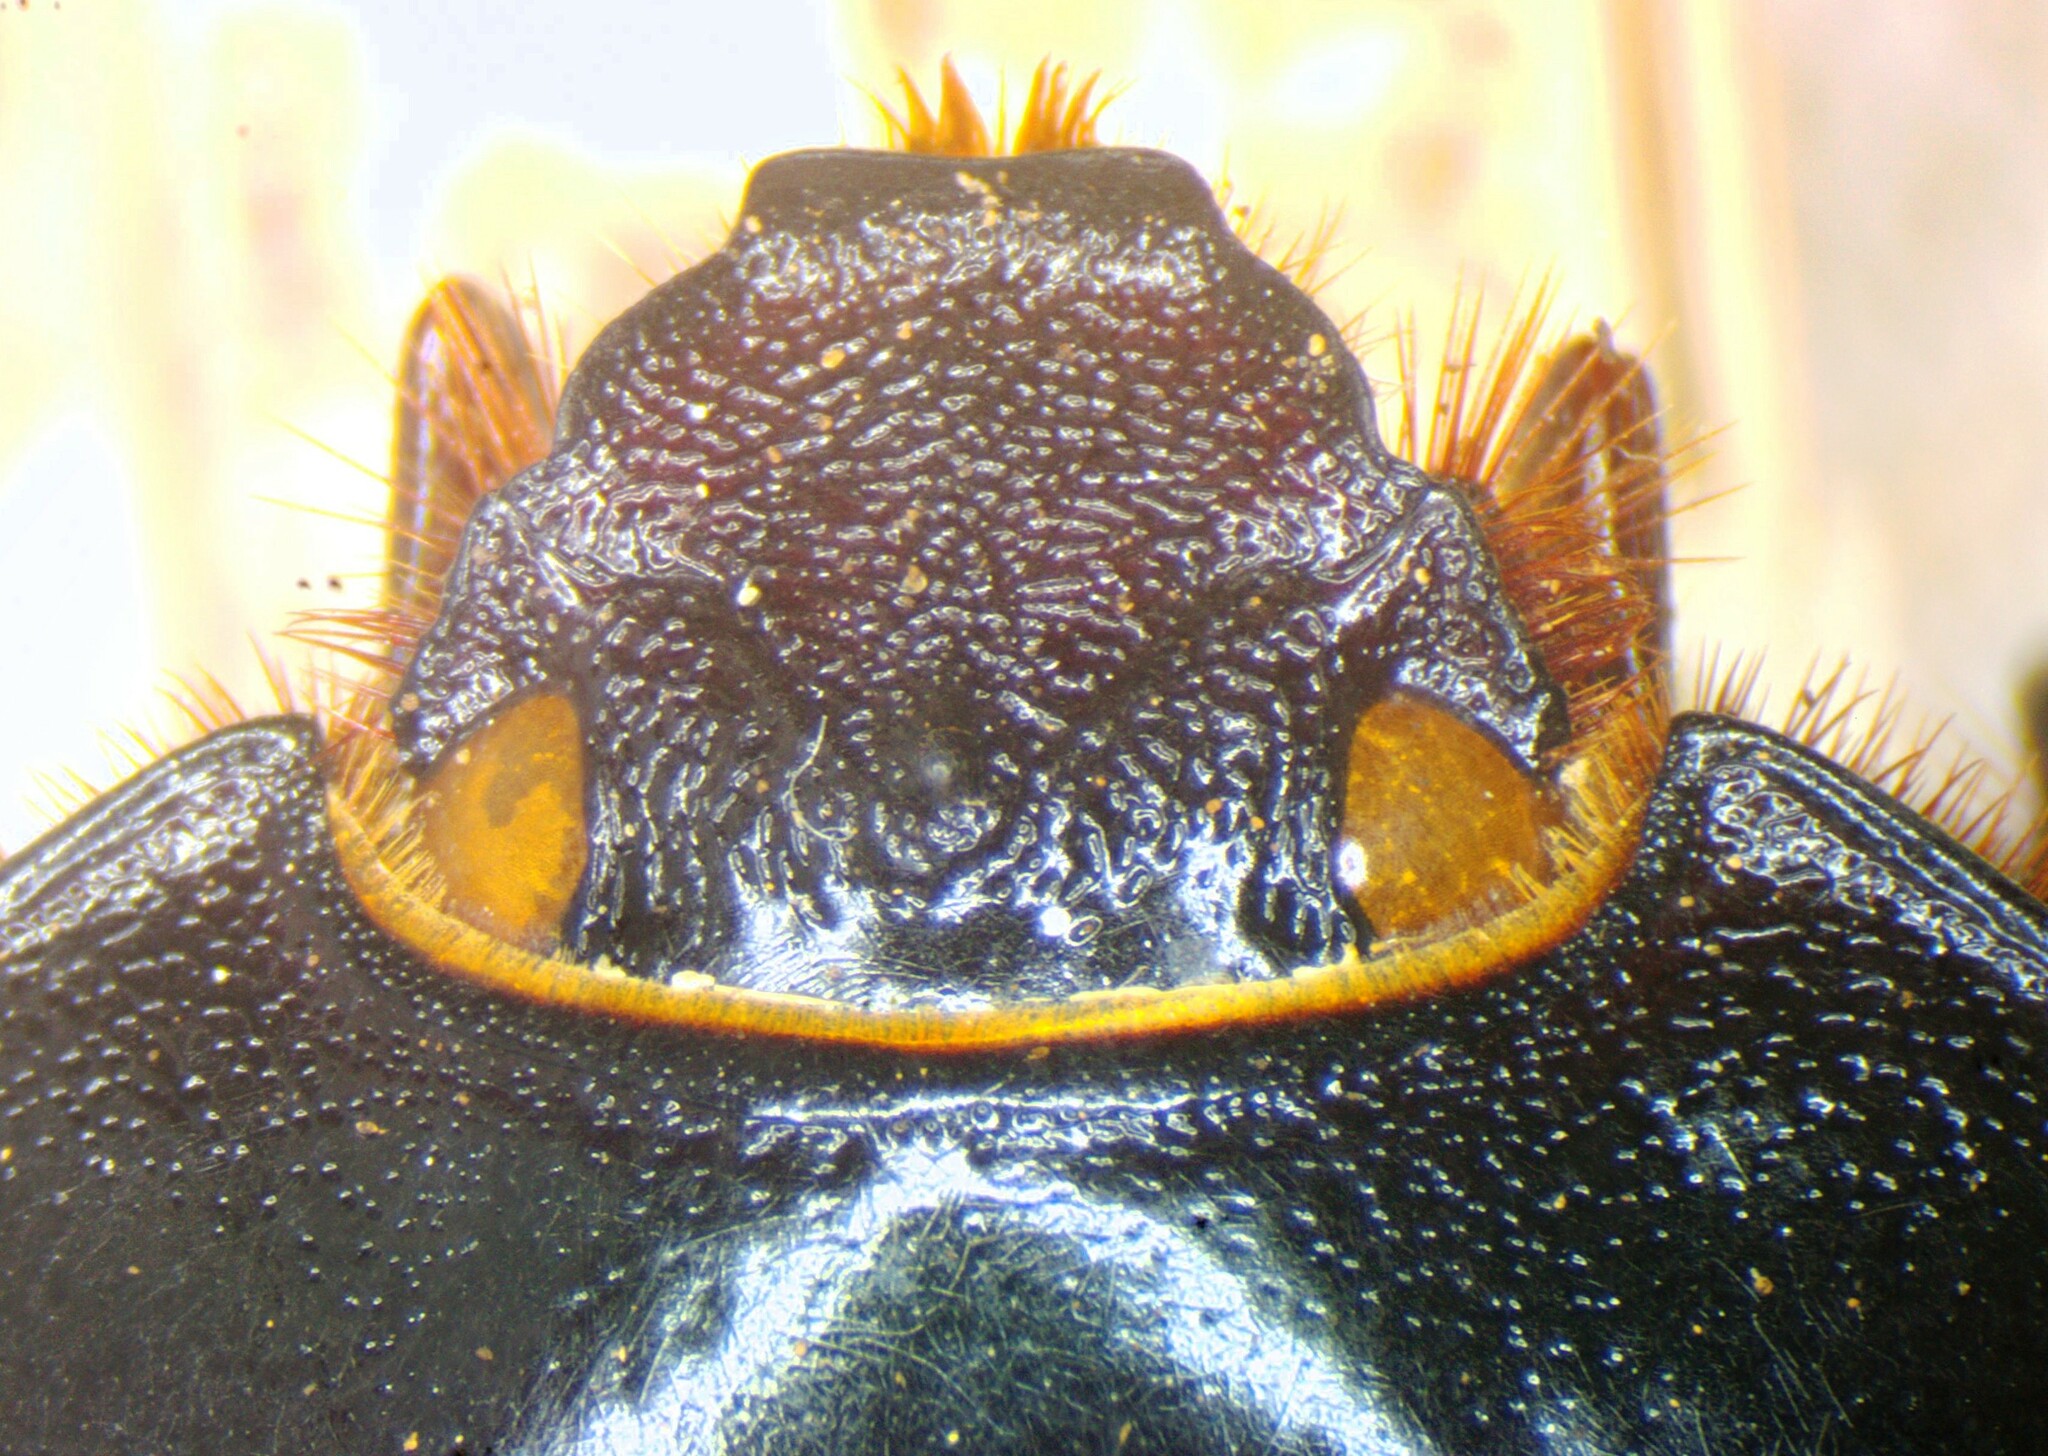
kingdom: Animalia
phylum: Arthropoda
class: Insecta
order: Coleoptera
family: Scarabaeidae
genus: Xyloryctes
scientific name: Xyloryctes lobicollis
